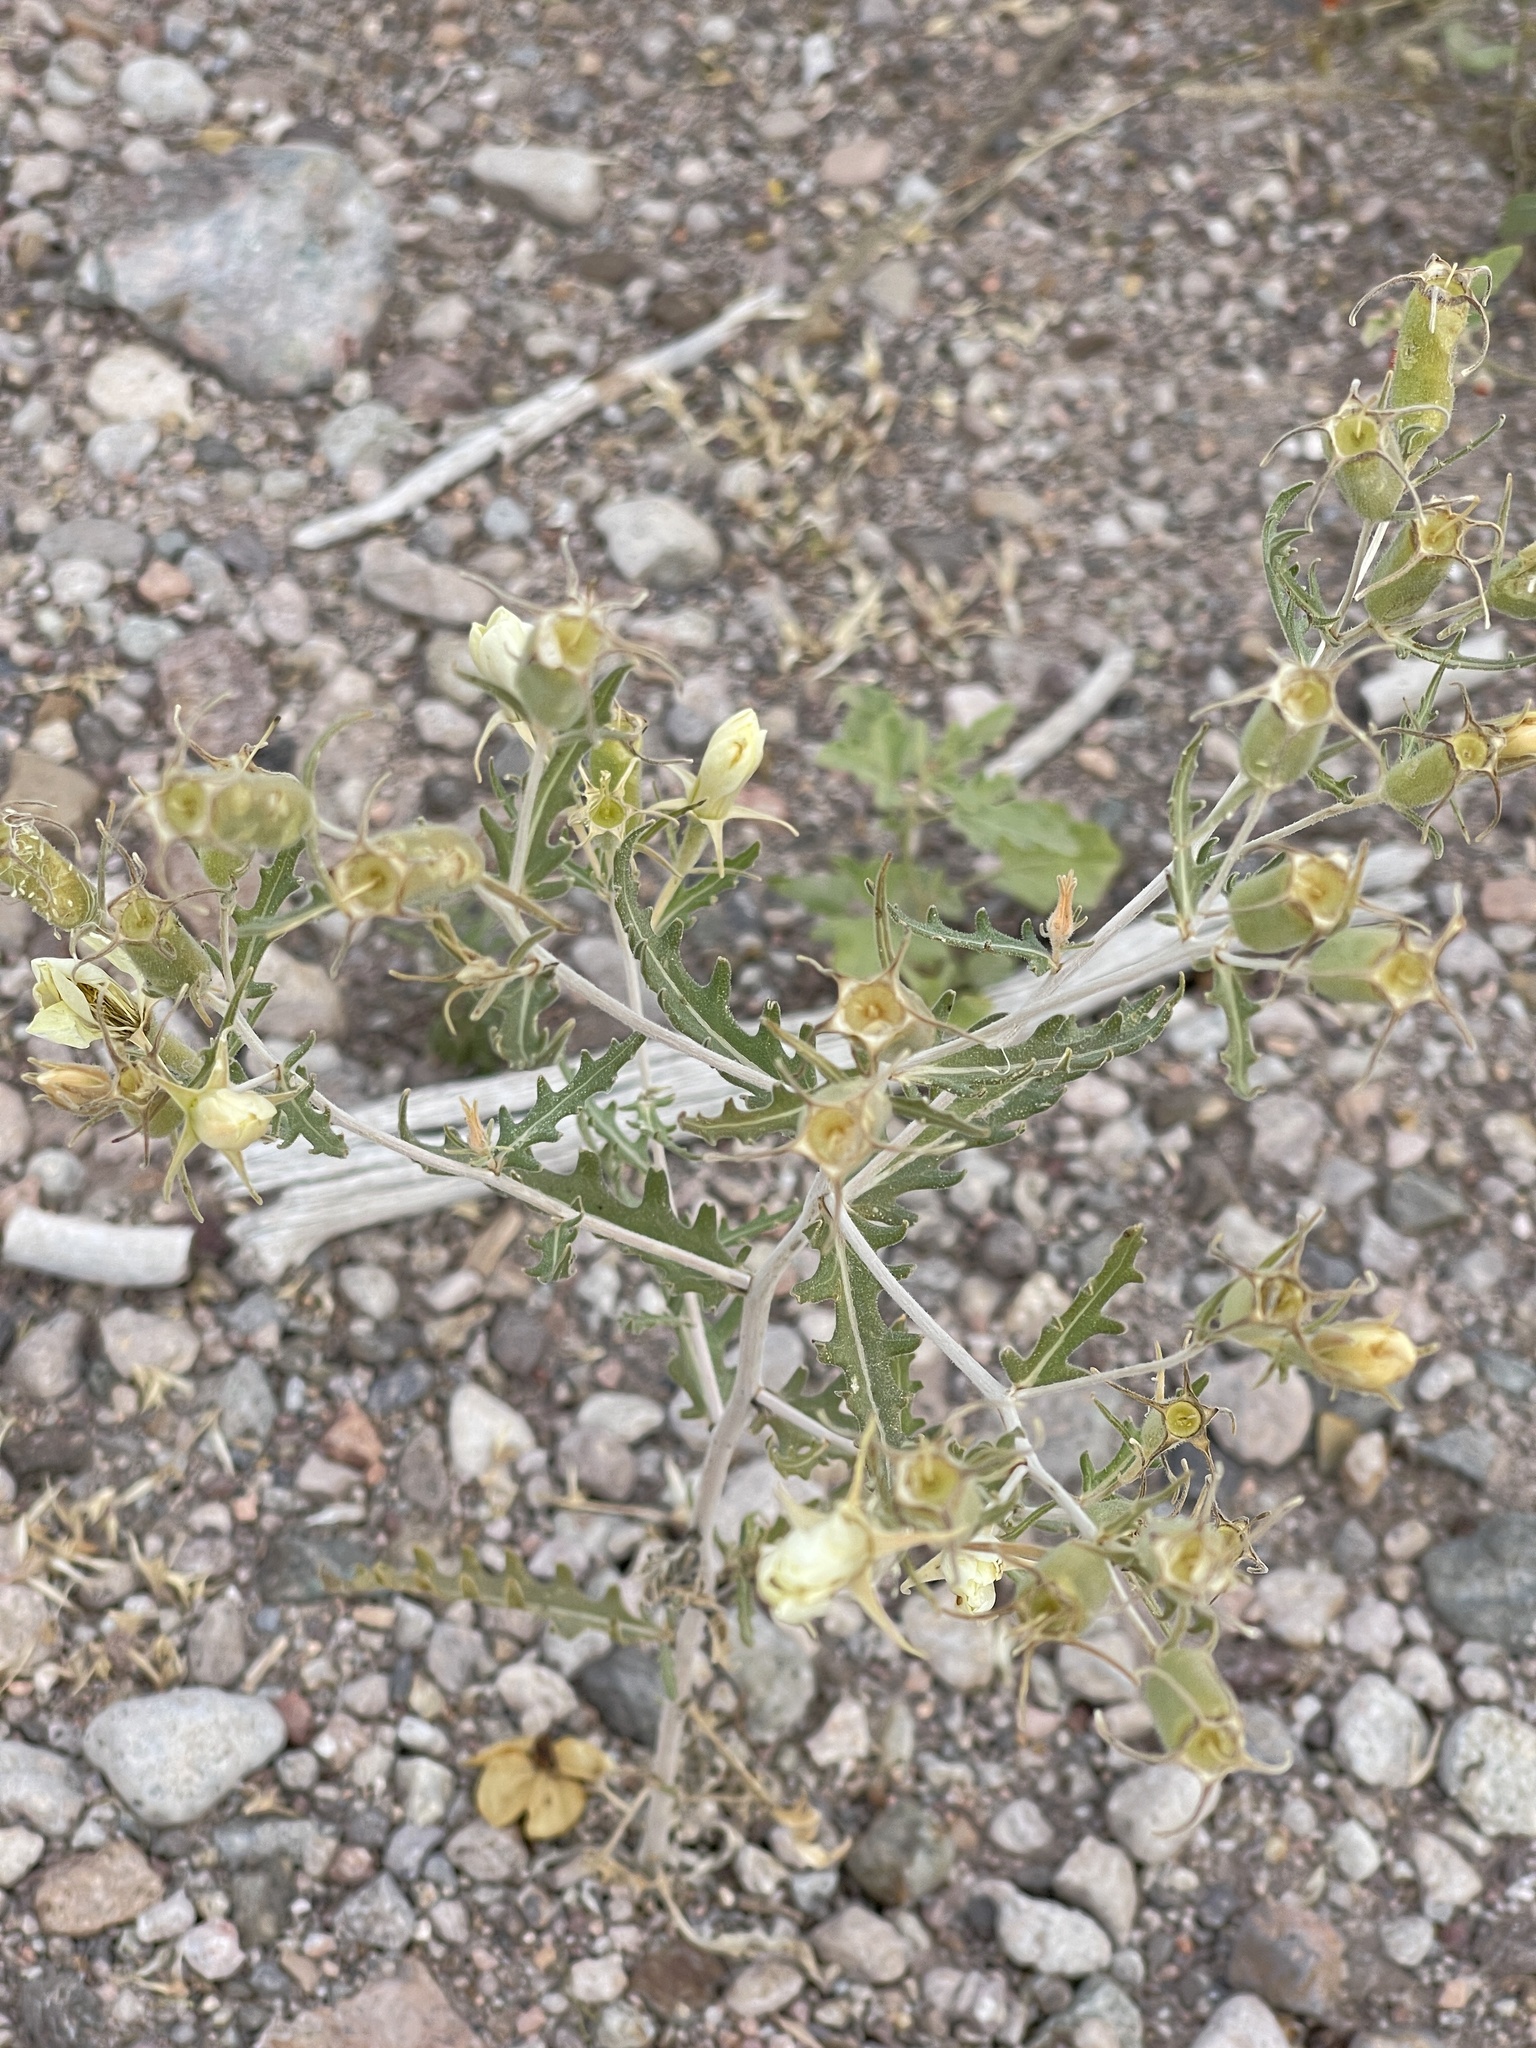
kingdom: Plantae
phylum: Tracheophyta
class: Magnoliopsida
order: Cornales
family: Loasaceae
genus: Mentzelia
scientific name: Mentzelia multiflora
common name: Adonis blazingstar
